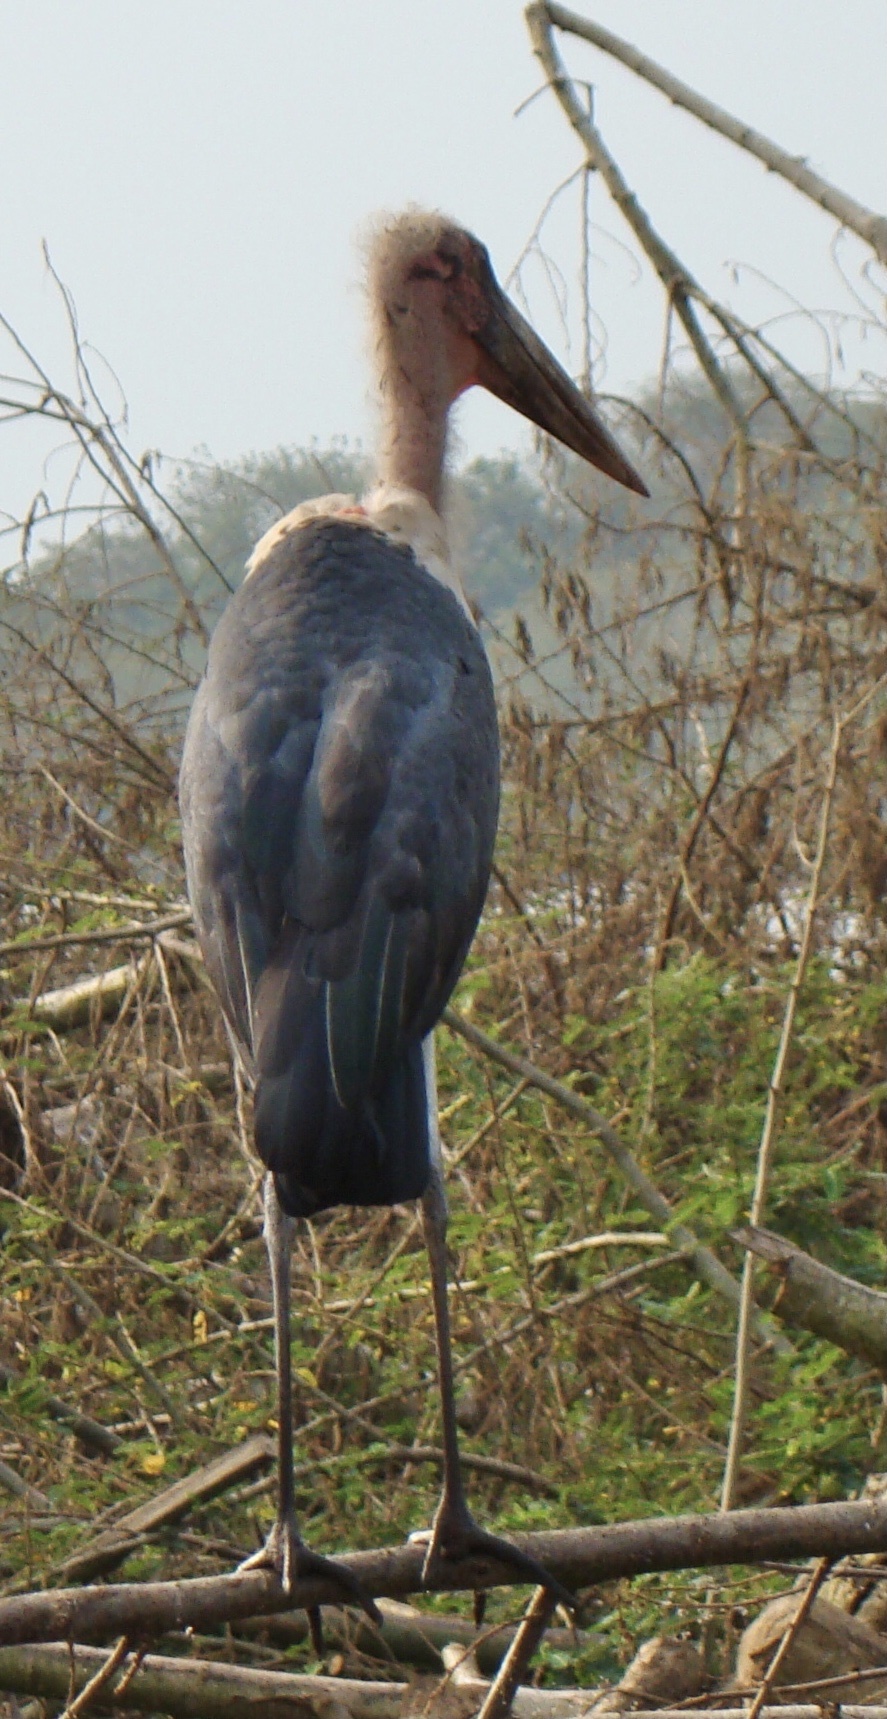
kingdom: Animalia
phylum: Chordata
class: Aves
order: Ciconiiformes
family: Ciconiidae
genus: Leptoptilos
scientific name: Leptoptilos crumenifer
